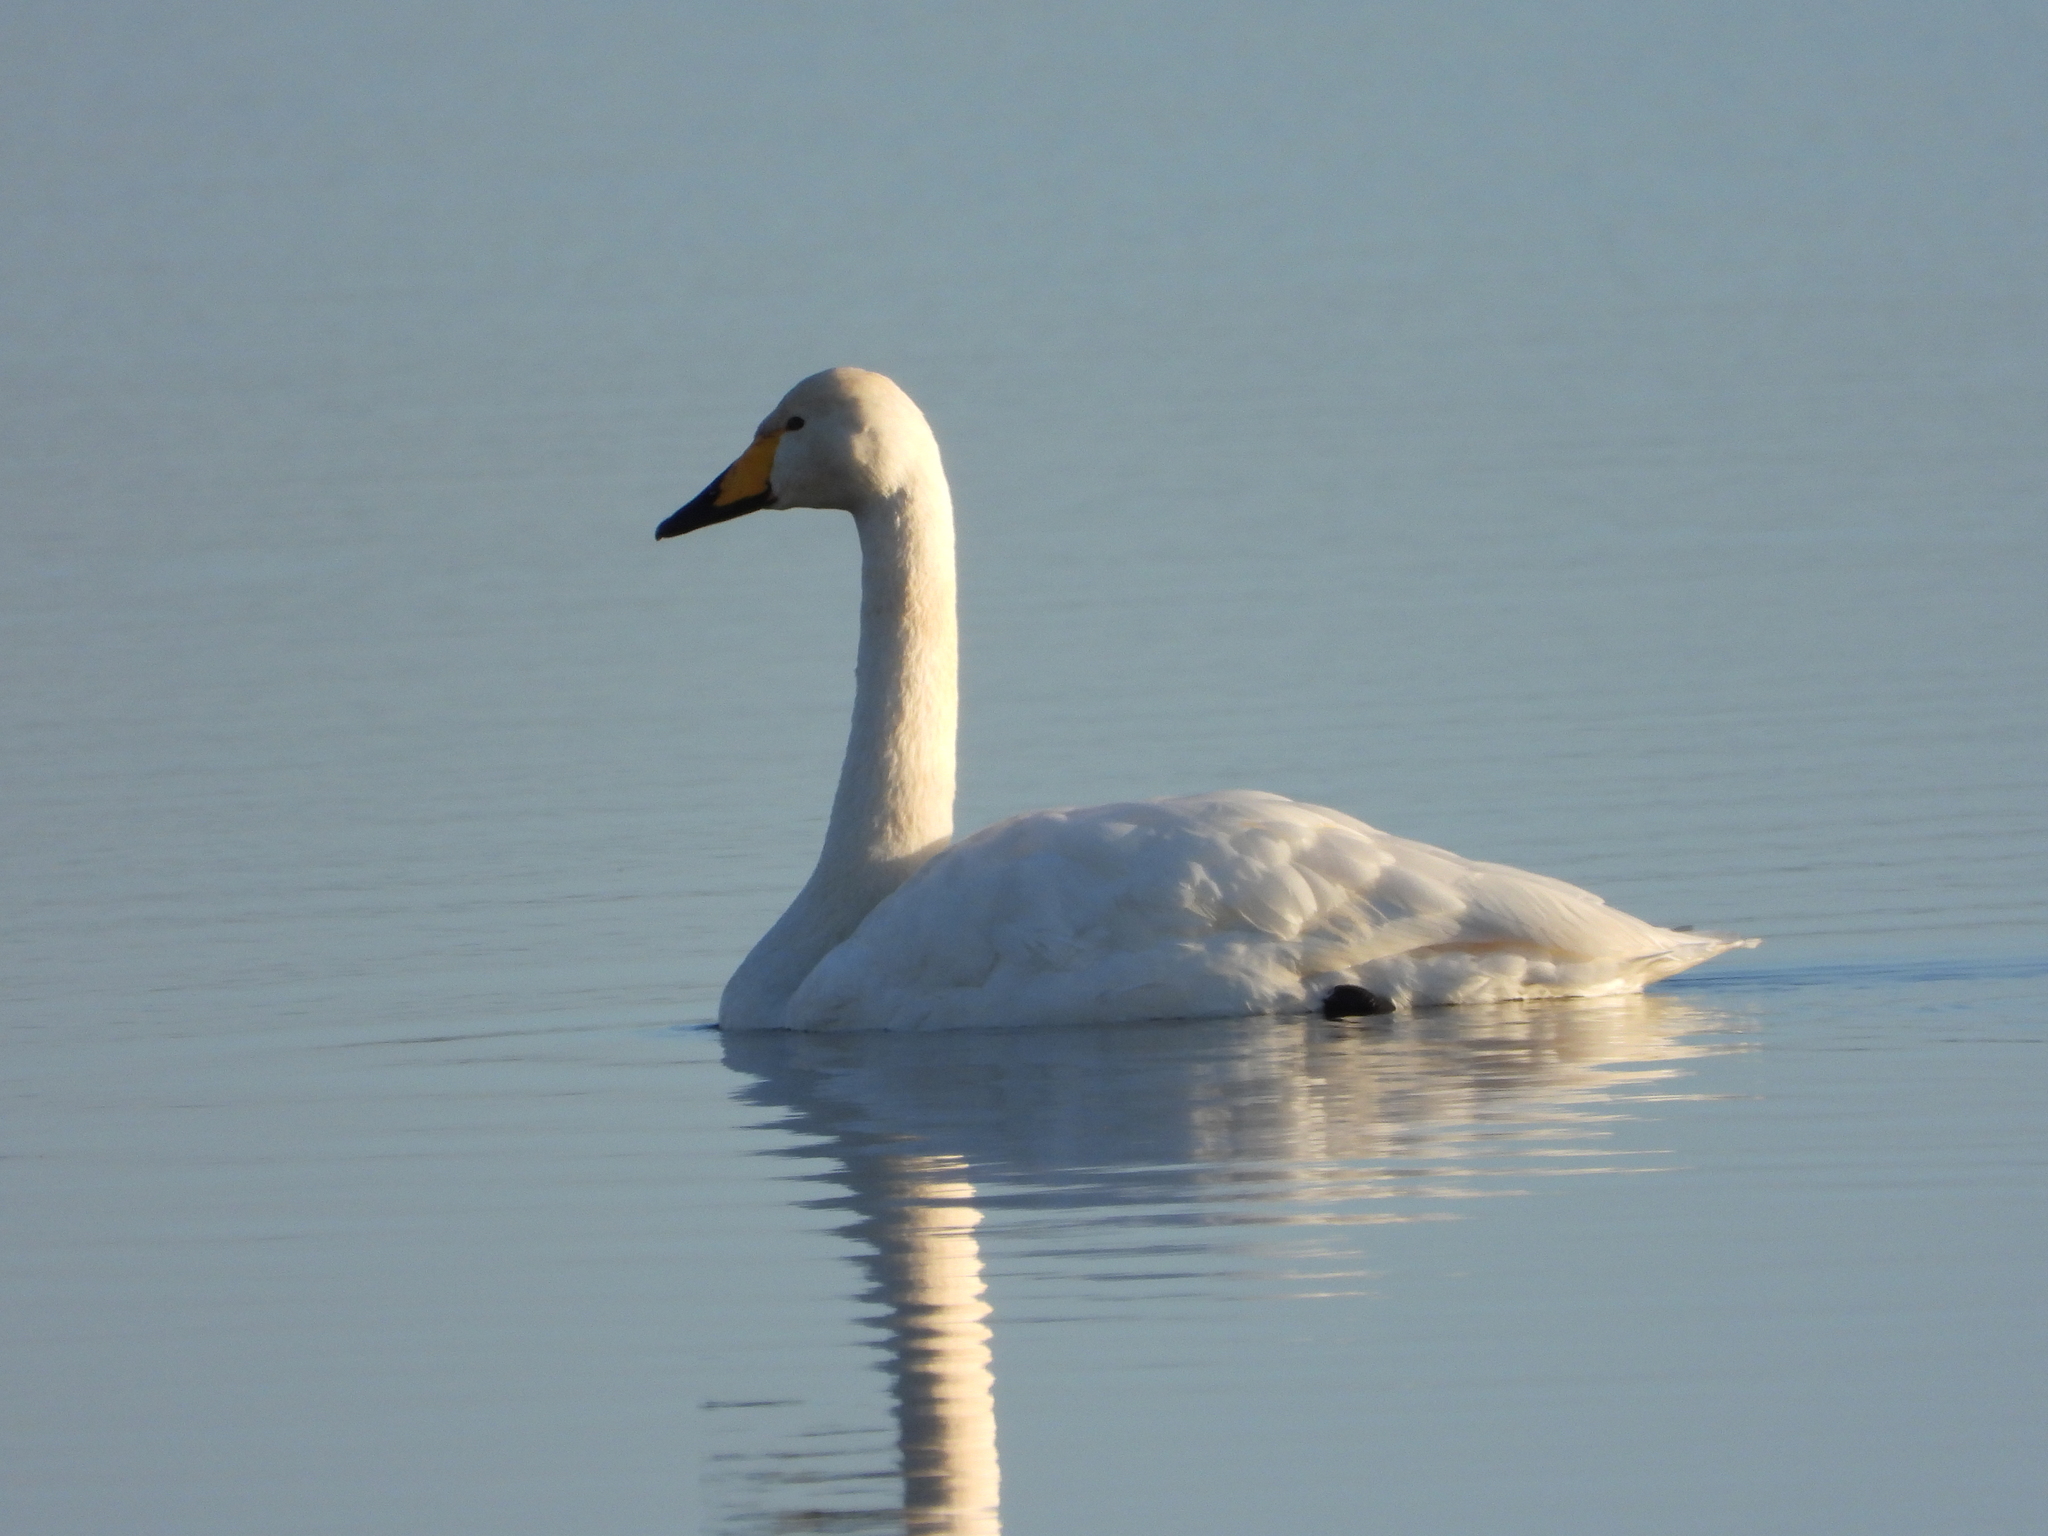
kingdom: Animalia
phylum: Chordata
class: Aves
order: Anseriformes
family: Anatidae
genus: Cygnus
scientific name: Cygnus cygnus
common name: Whooper swan
